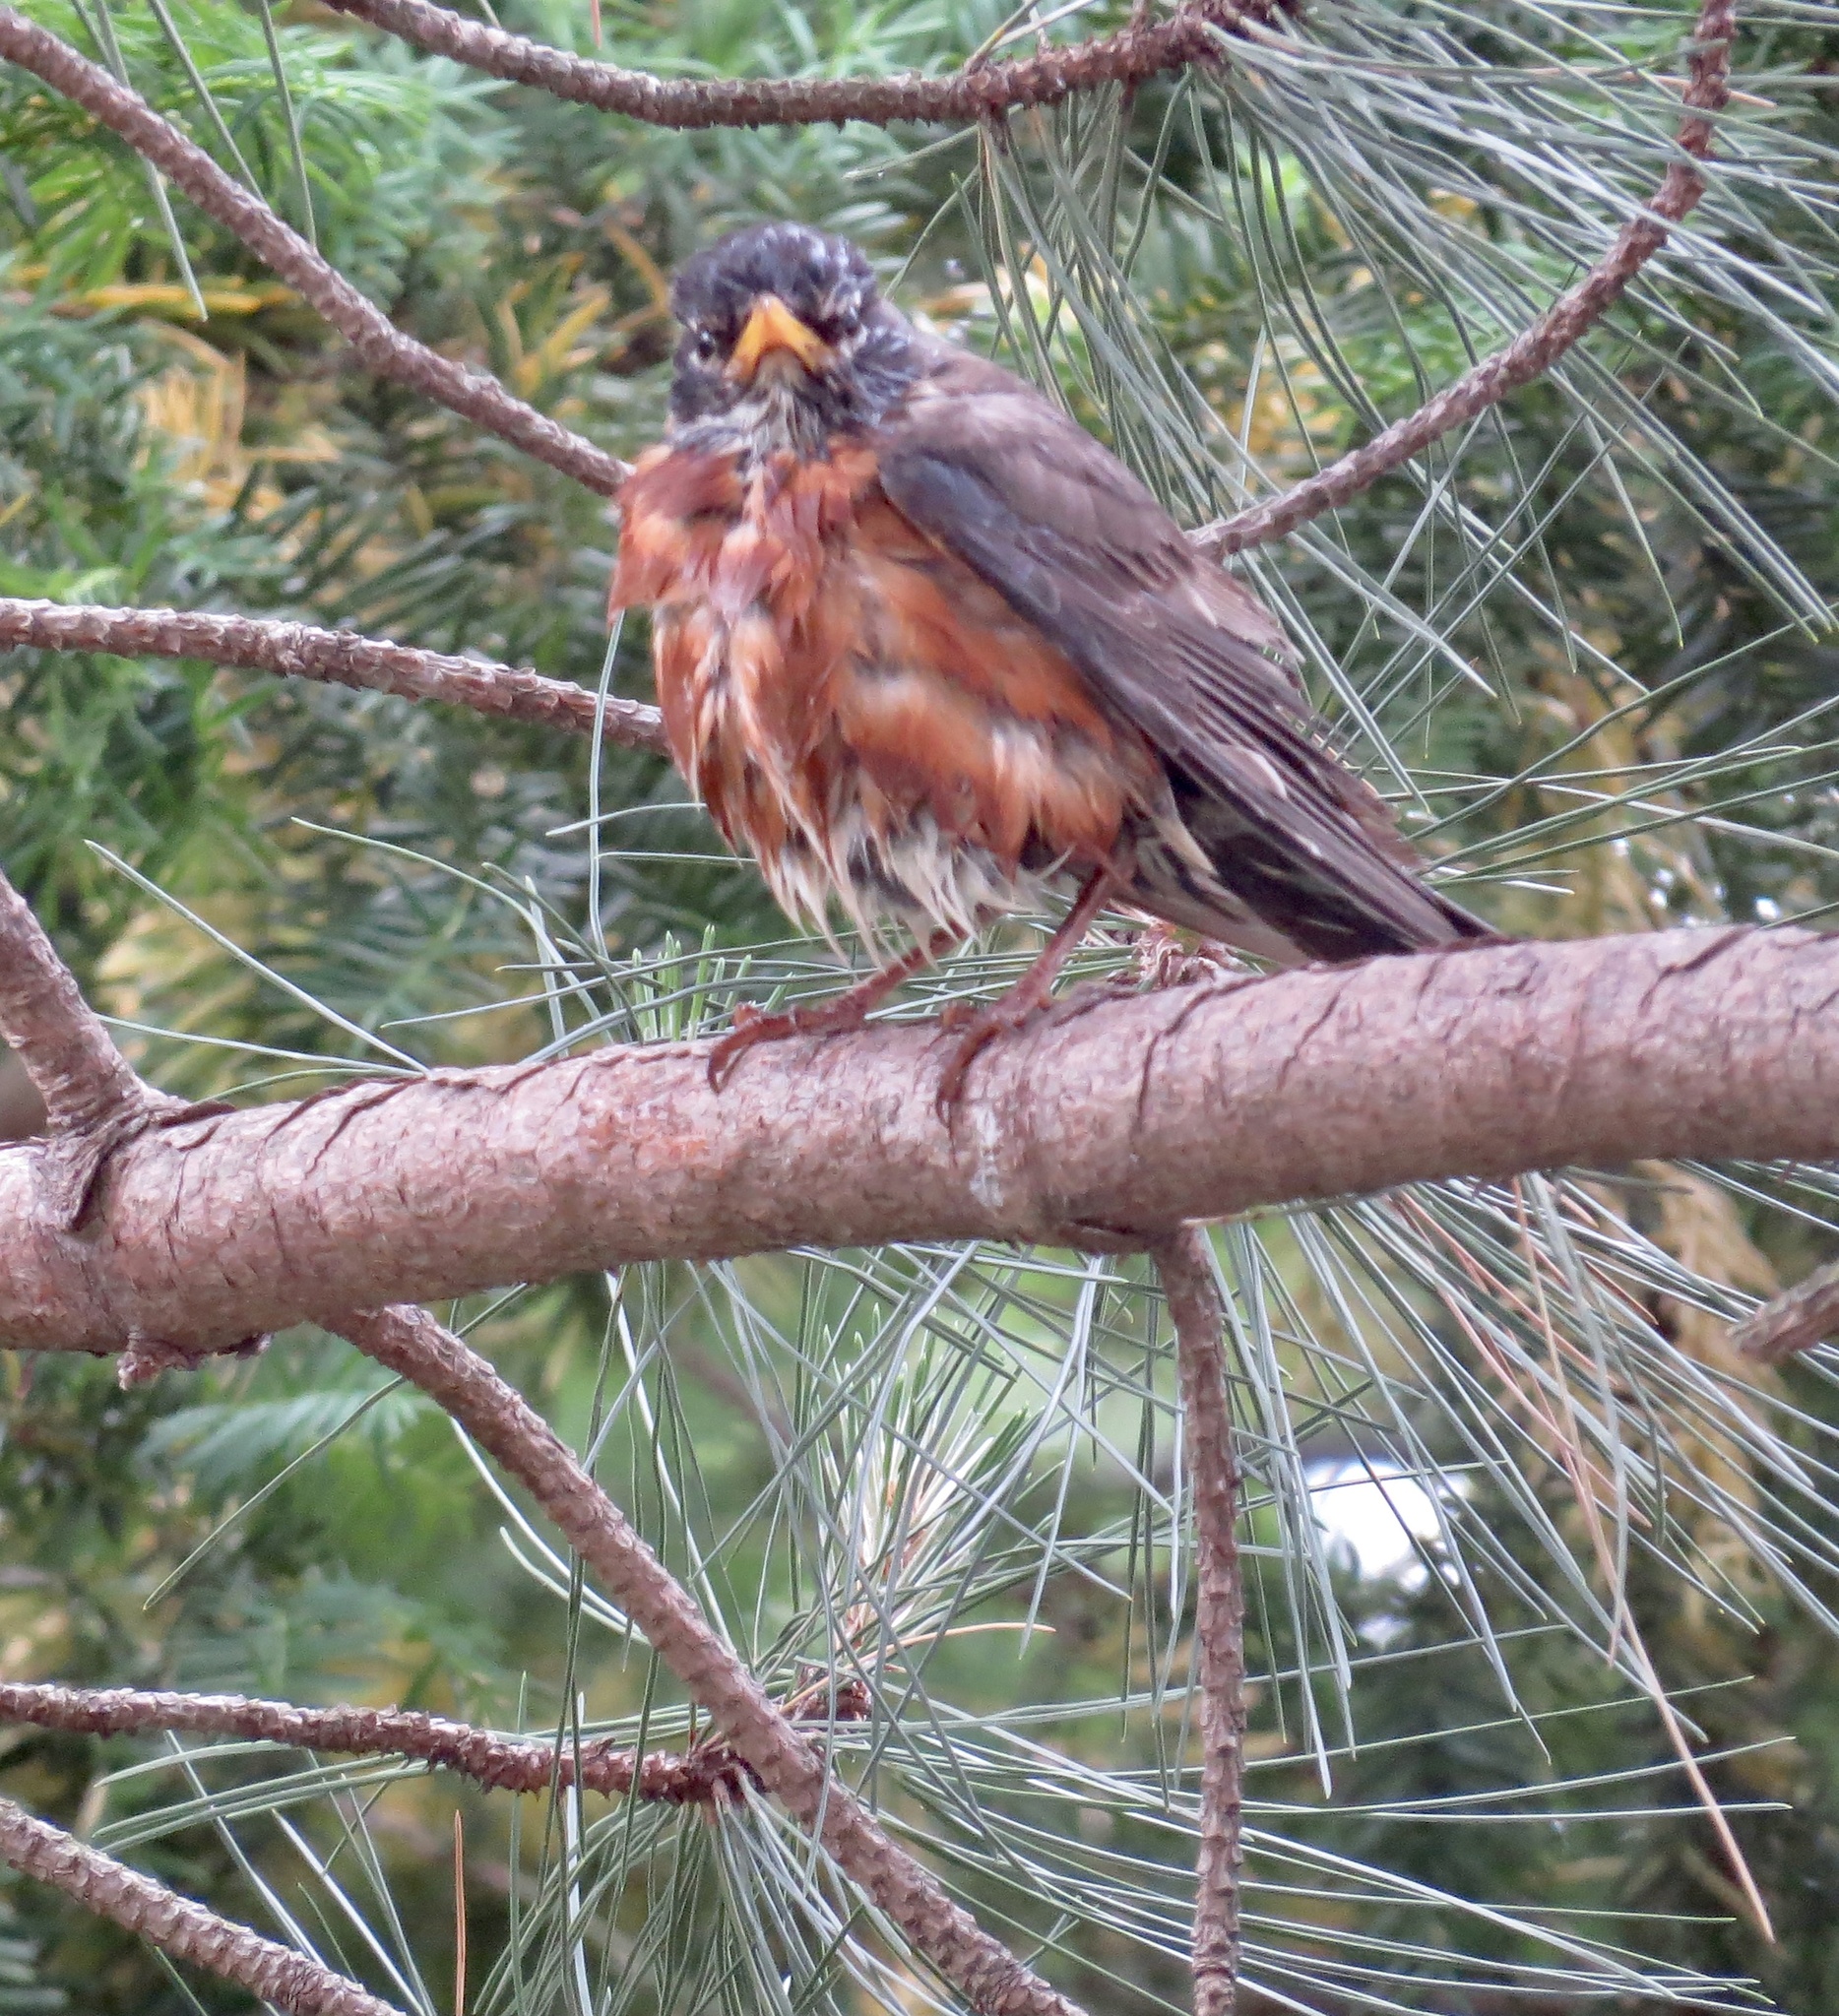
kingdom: Animalia
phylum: Chordata
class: Aves
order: Passeriformes
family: Turdidae
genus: Turdus
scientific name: Turdus migratorius
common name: American robin
